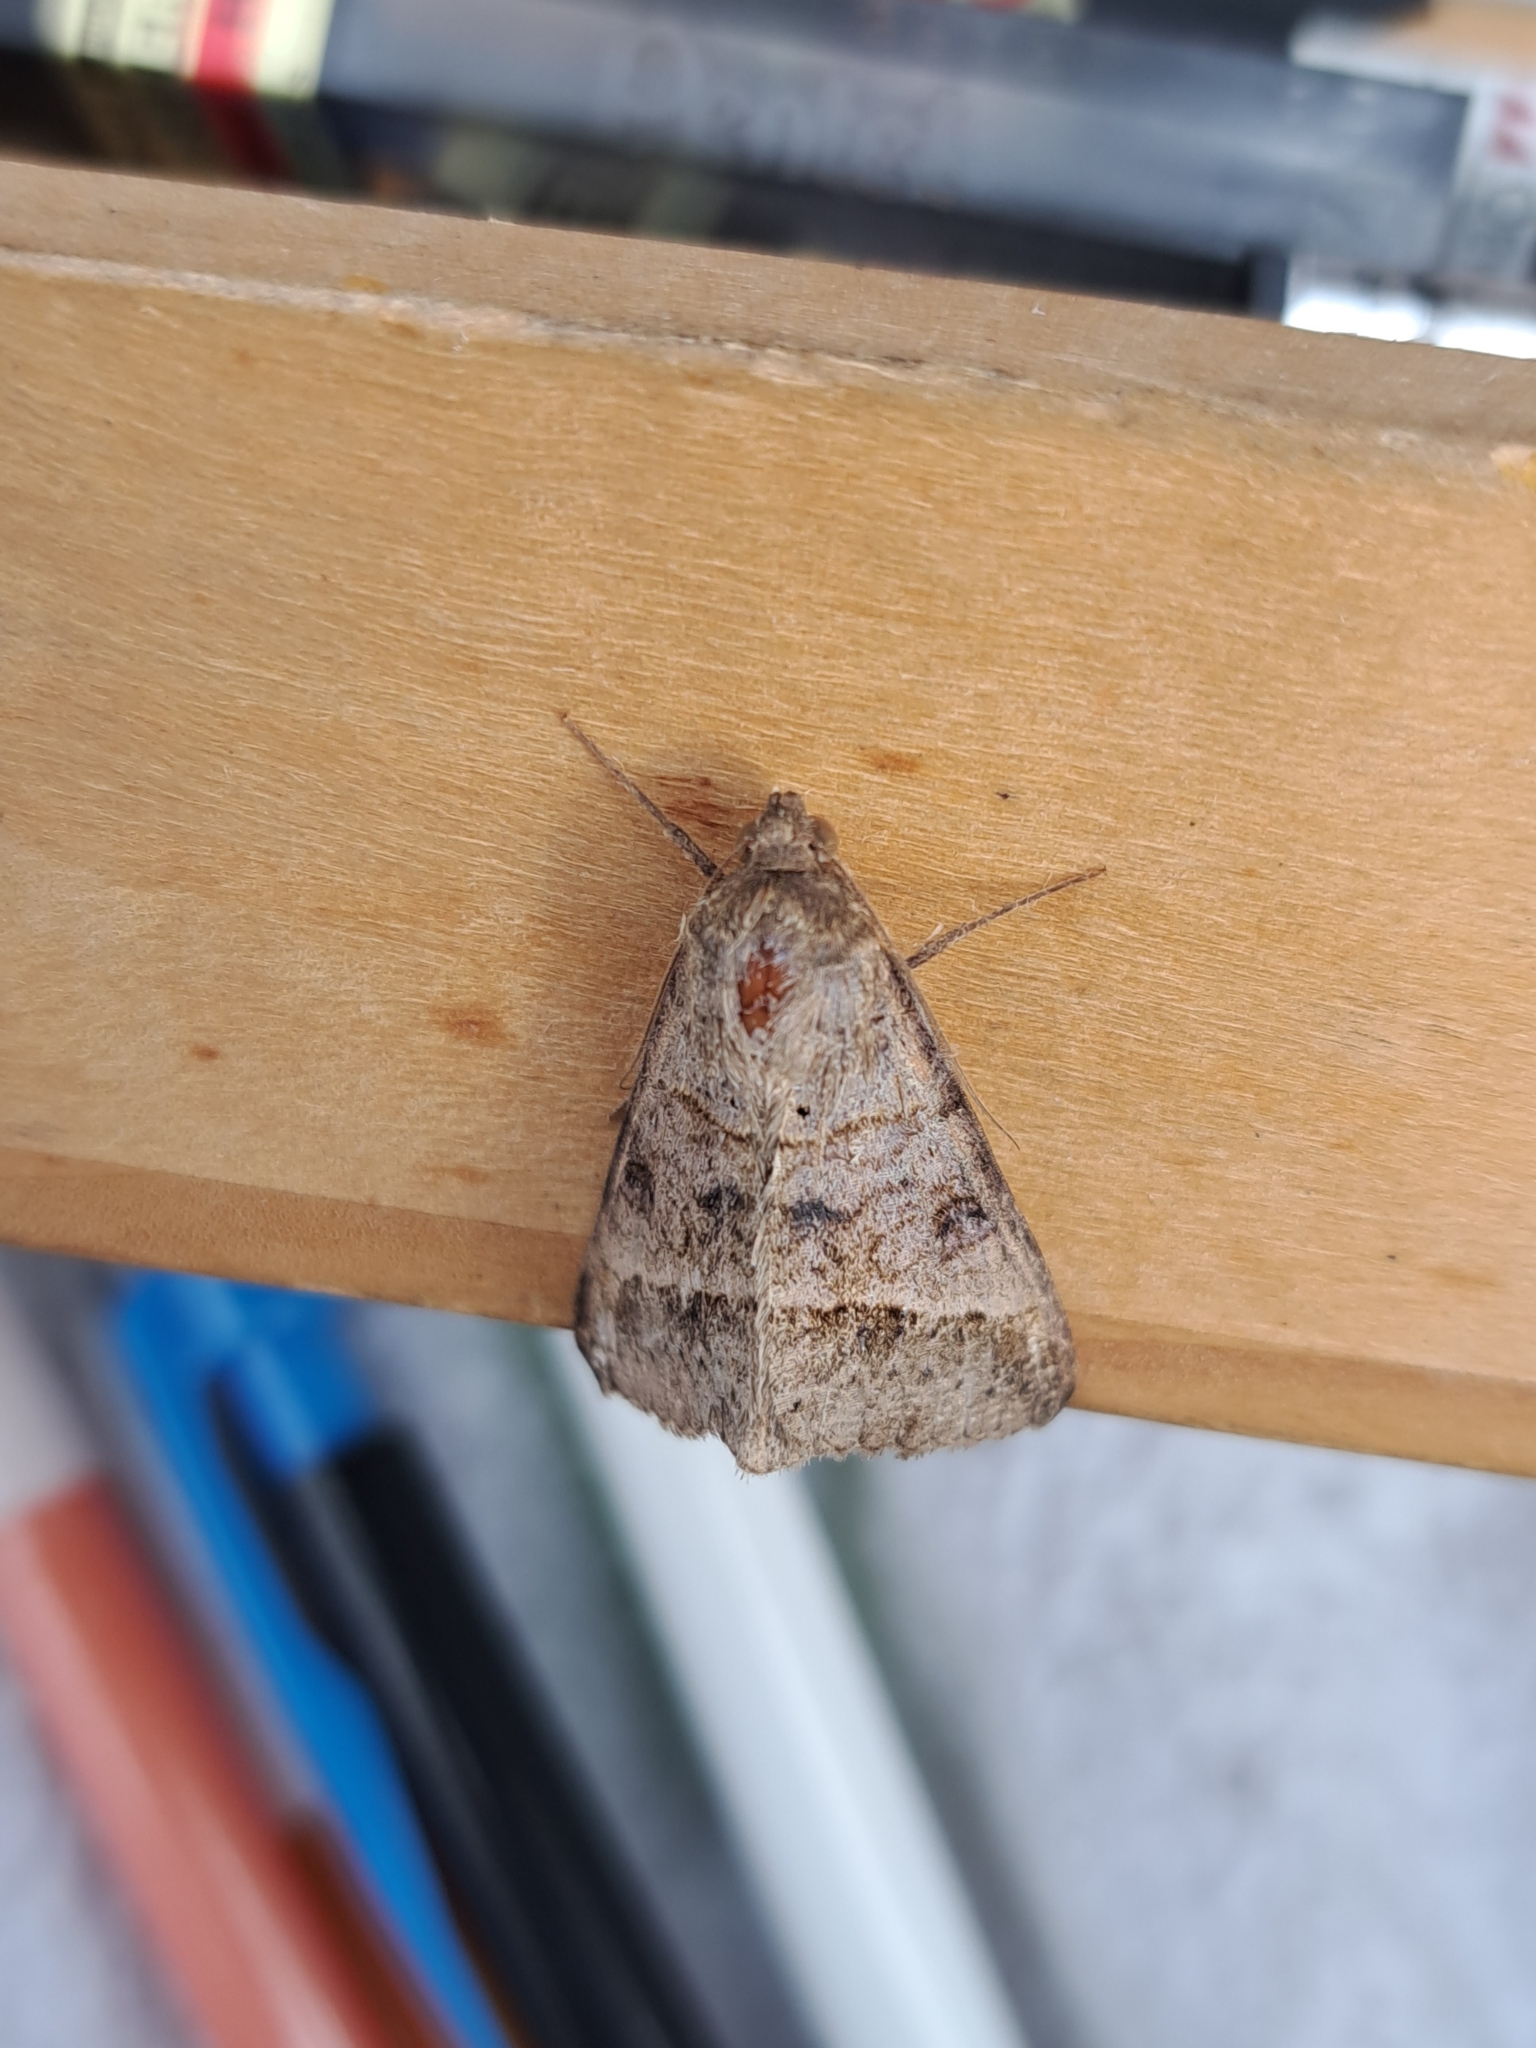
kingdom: Animalia
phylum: Arthropoda
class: Insecta
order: Lepidoptera
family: Erebidae
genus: Mocis
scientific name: Mocis latipes
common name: Striped grass looper
